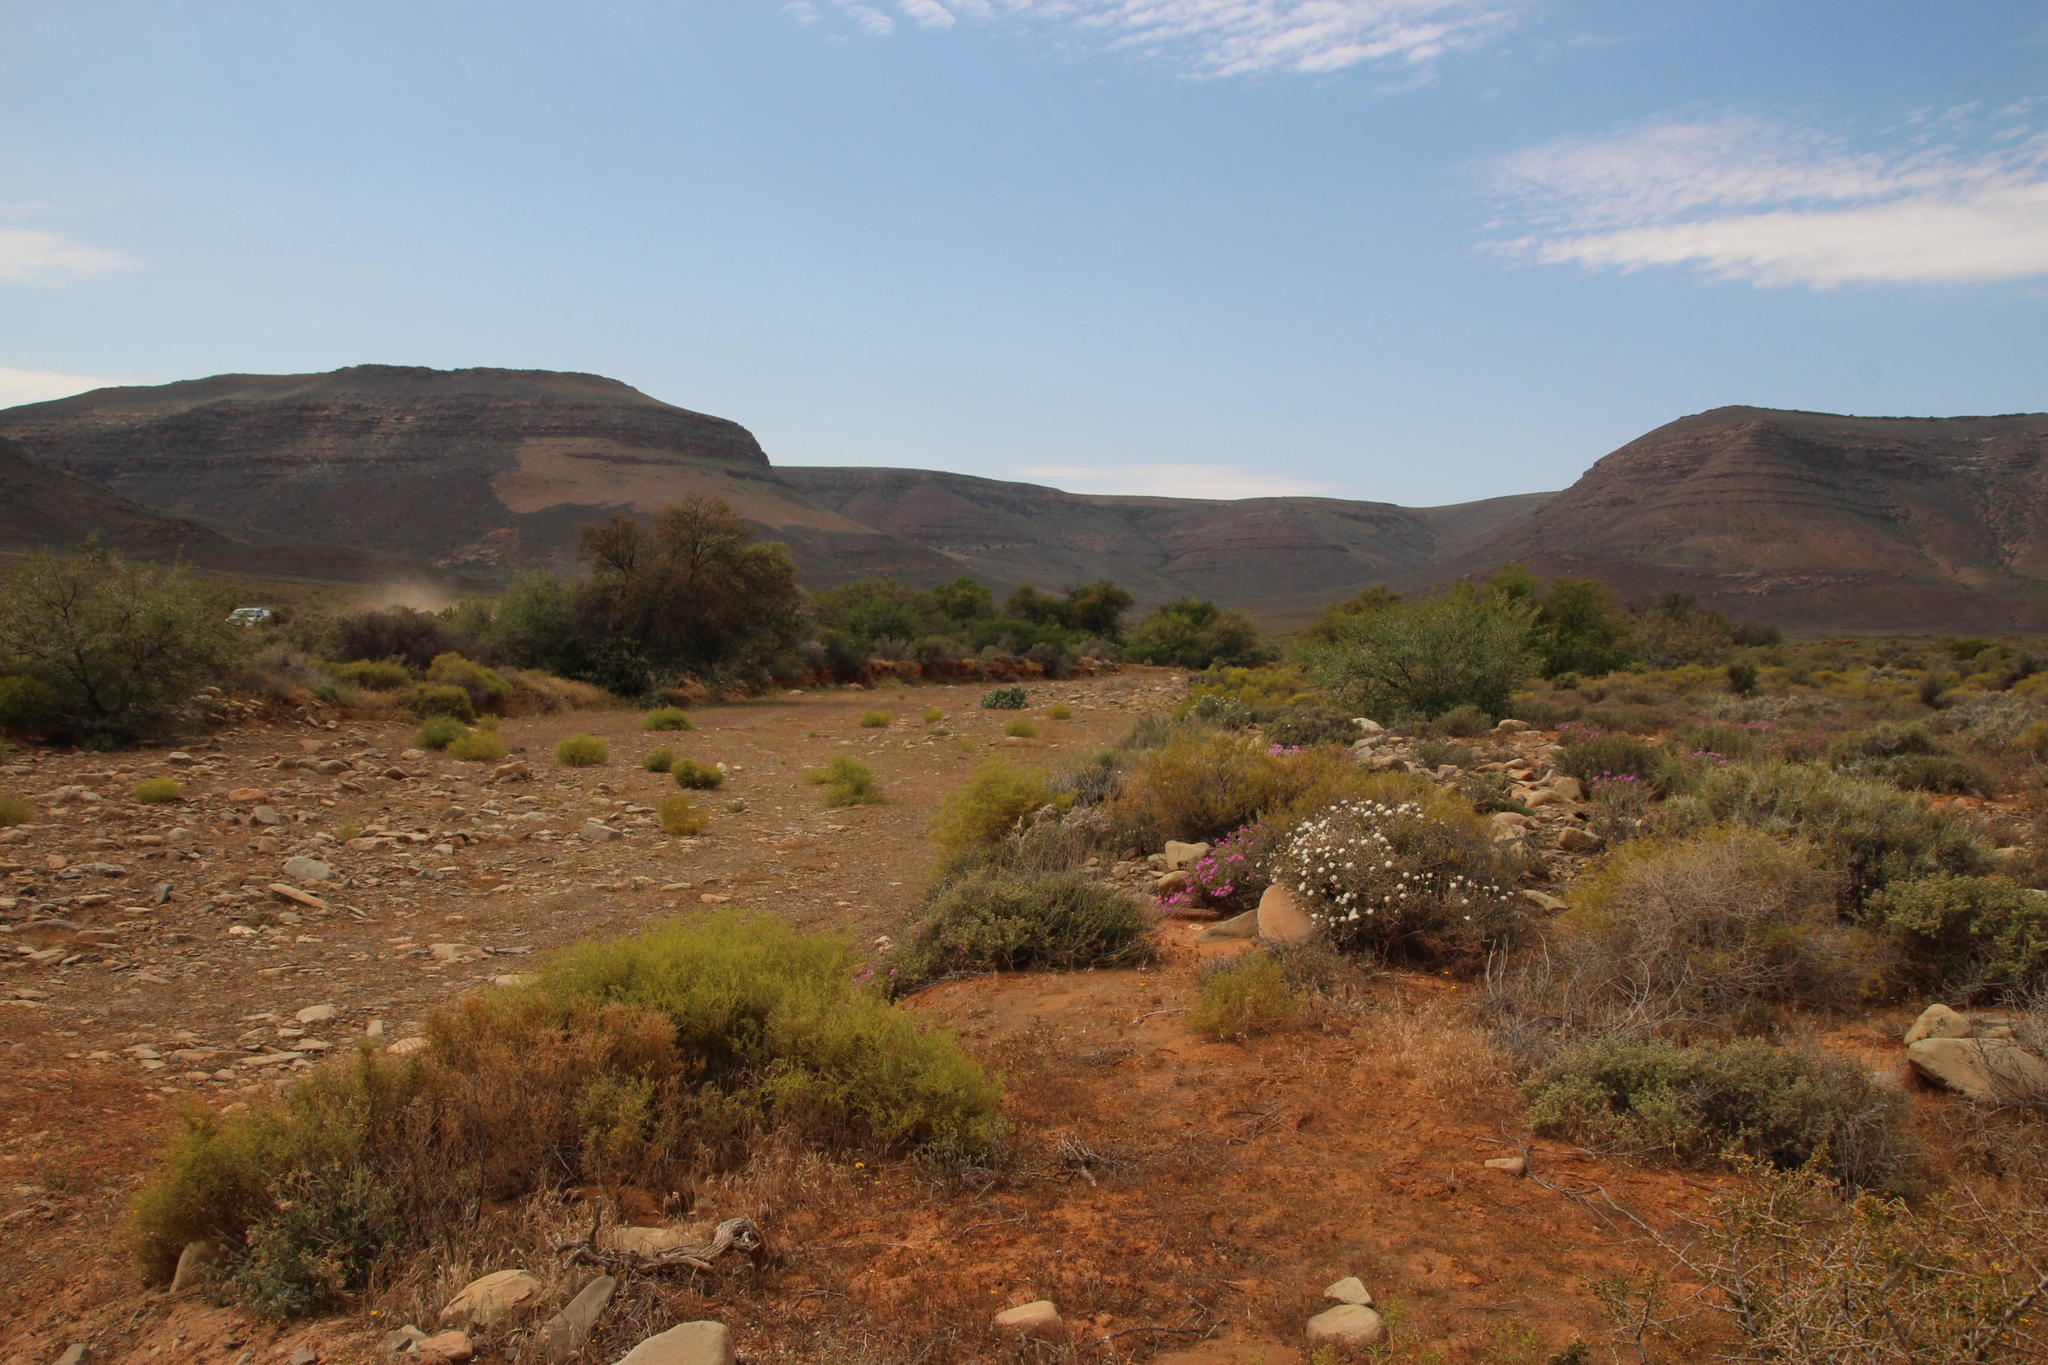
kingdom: Plantae
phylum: Tracheophyta
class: Magnoliopsida
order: Caryophyllales
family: Aizoaceae
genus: Aizoon
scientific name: Aizoon africanum
